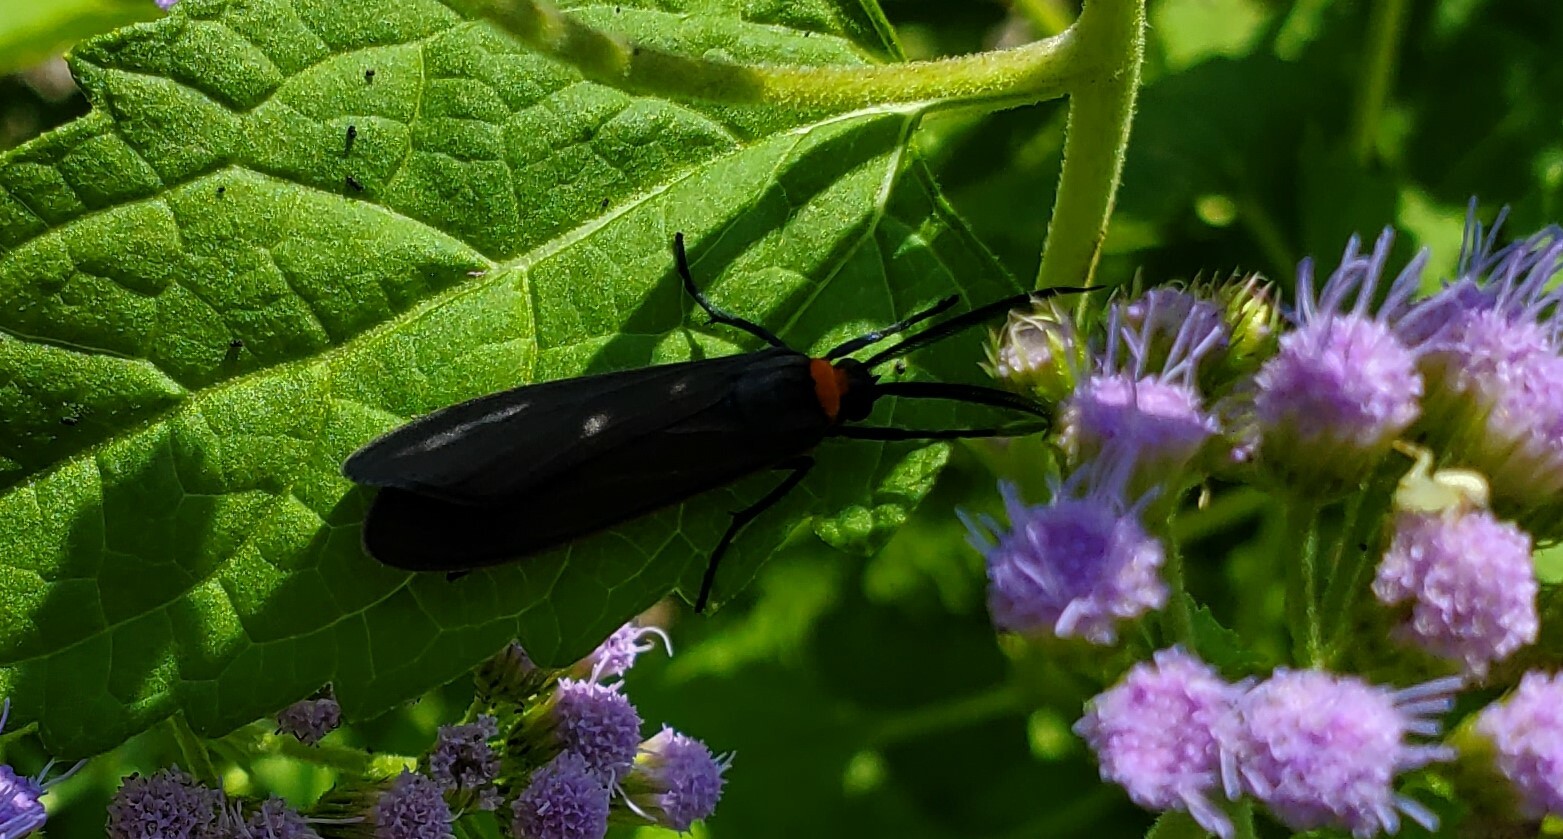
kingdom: Animalia
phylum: Arthropoda
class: Insecta
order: Lepidoptera
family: Erebidae
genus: Cisseps
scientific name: Cisseps fulvicollis
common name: Yellow-collared scape moth
